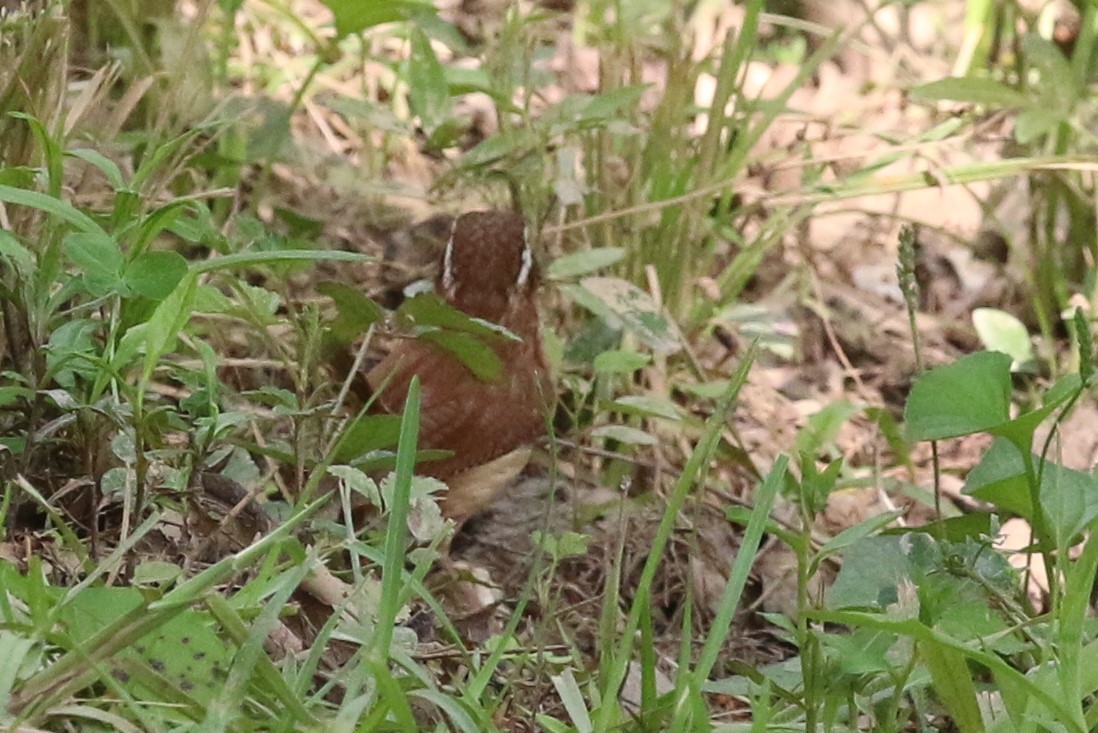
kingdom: Animalia
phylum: Chordata
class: Aves
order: Passeriformes
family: Troglodytidae
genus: Thryothorus
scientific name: Thryothorus ludovicianus
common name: Carolina wren
